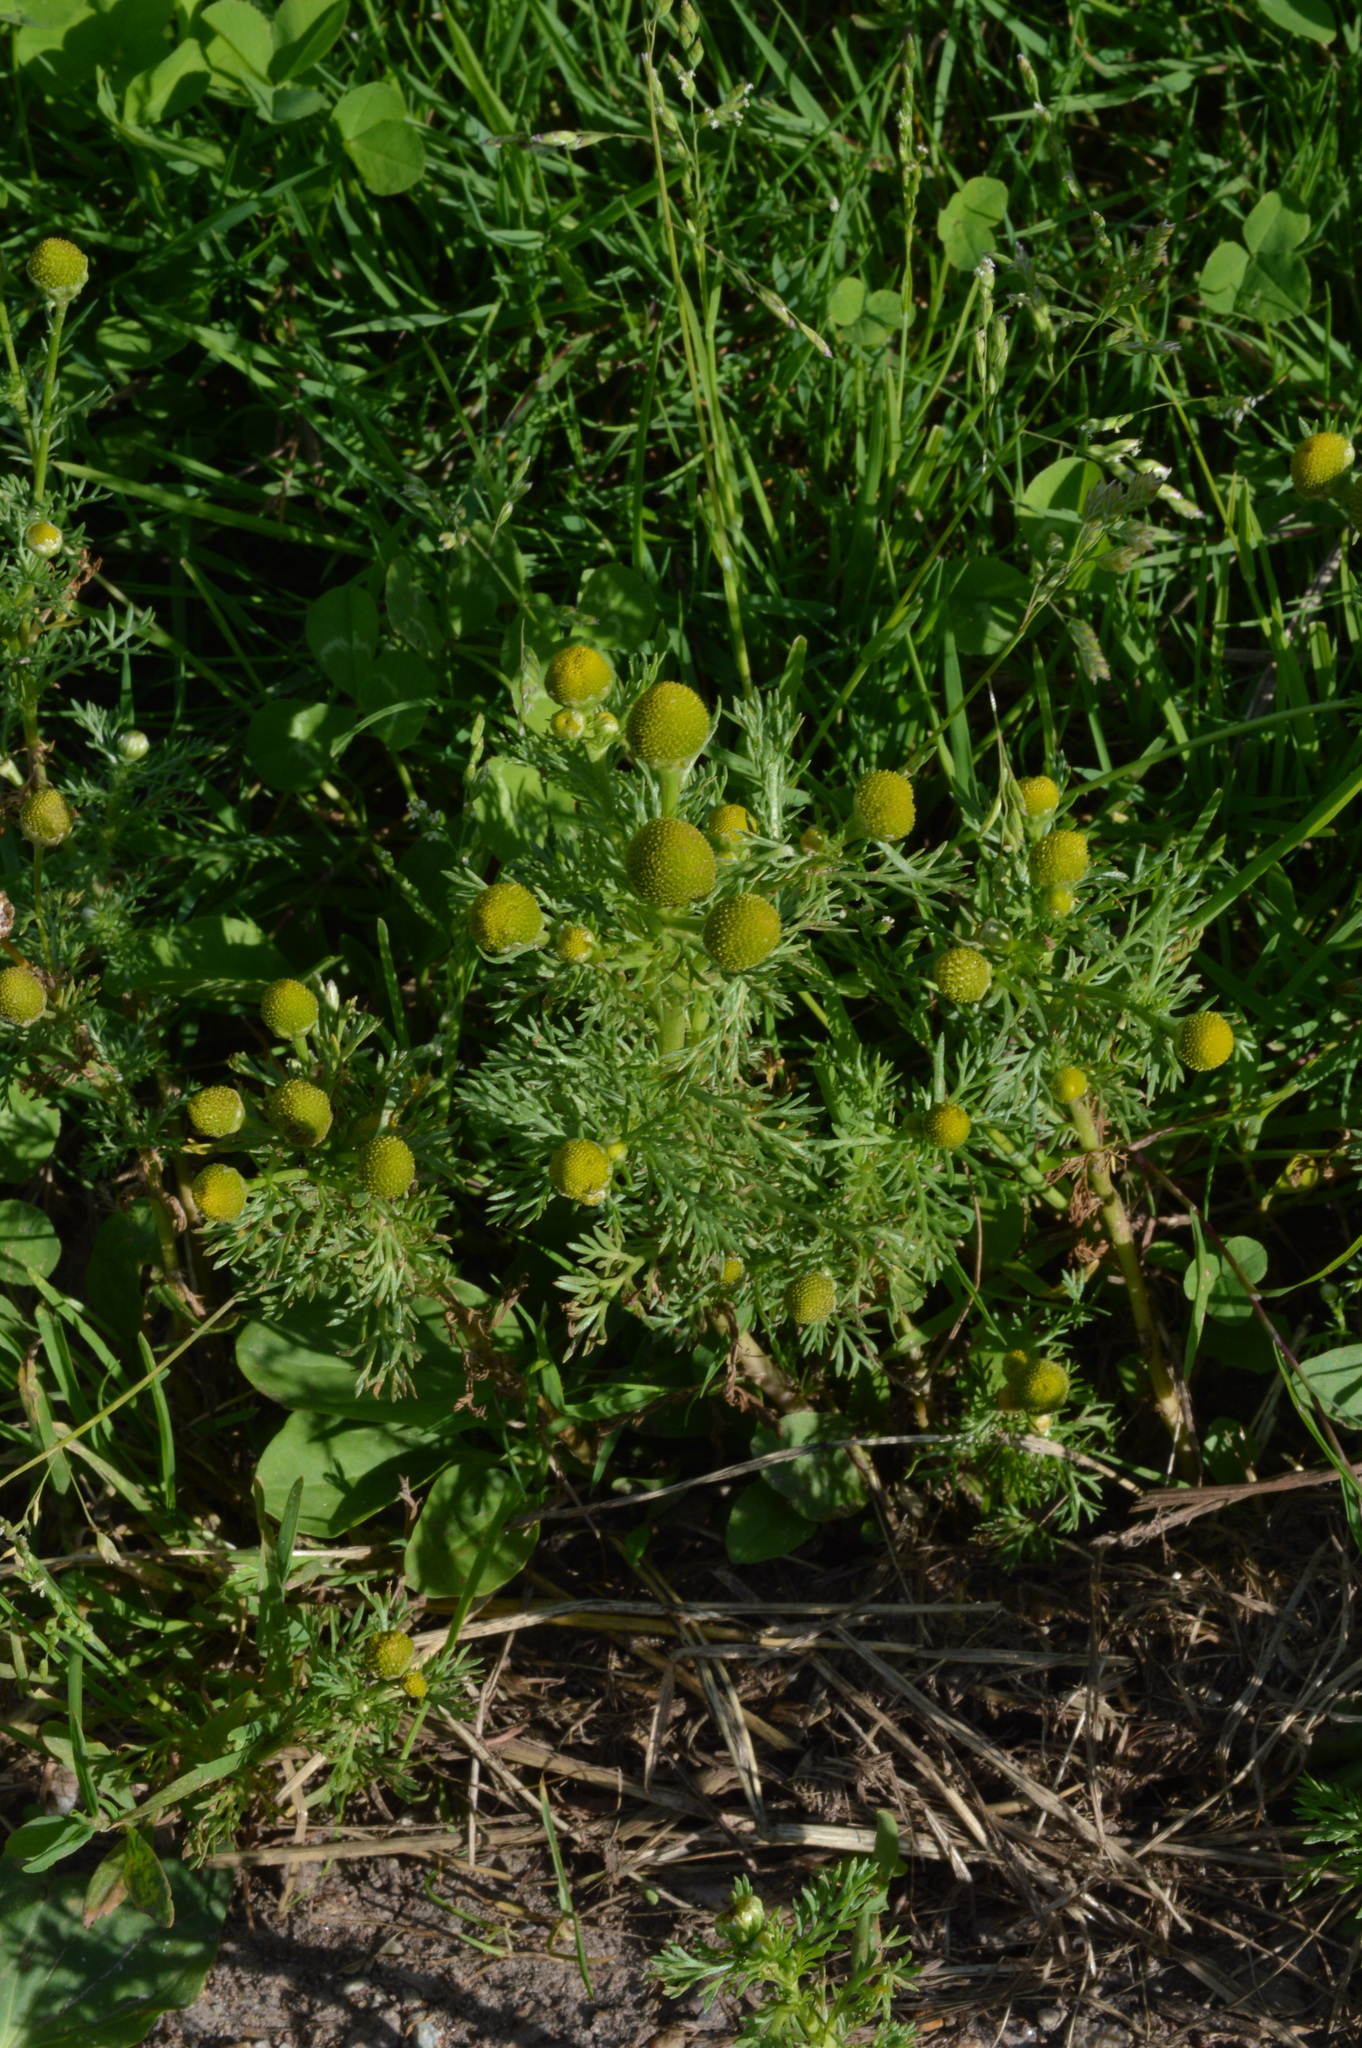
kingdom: Plantae
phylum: Tracheophyta
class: Magnoliopsida
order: Asterales
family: Asteraceae
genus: Matricaria
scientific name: Matricaria discoidea
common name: Disc mayweed
